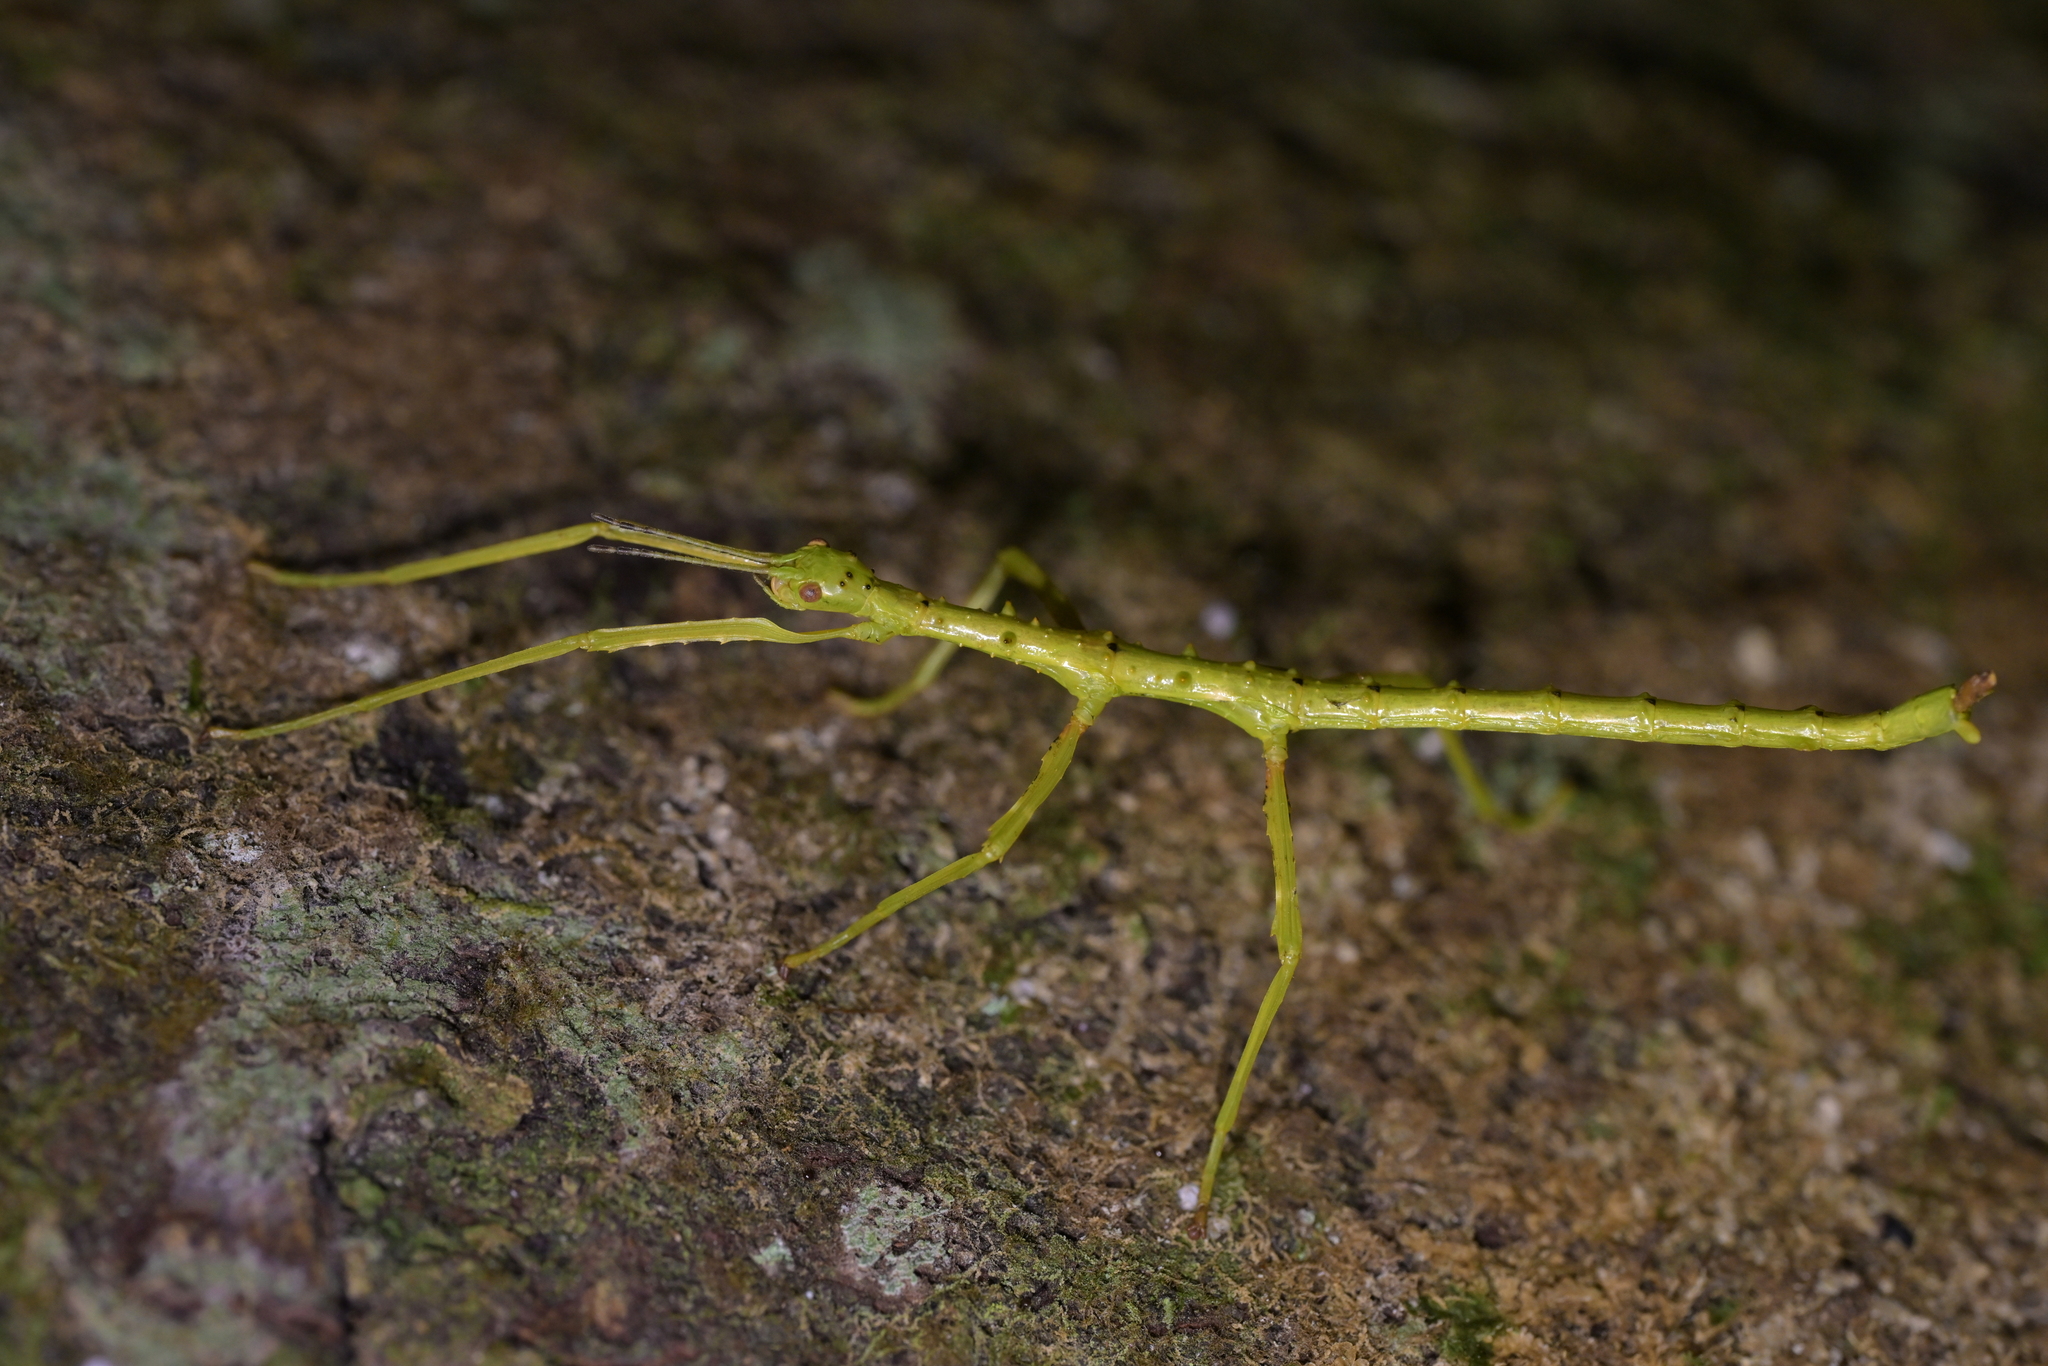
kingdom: Animalia
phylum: Arthropoda
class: Insecta
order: Phasmida
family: Phasmatidae
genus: Acanthoxyla
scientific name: Acanthoxyla prasina
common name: Black-spined stick insect
